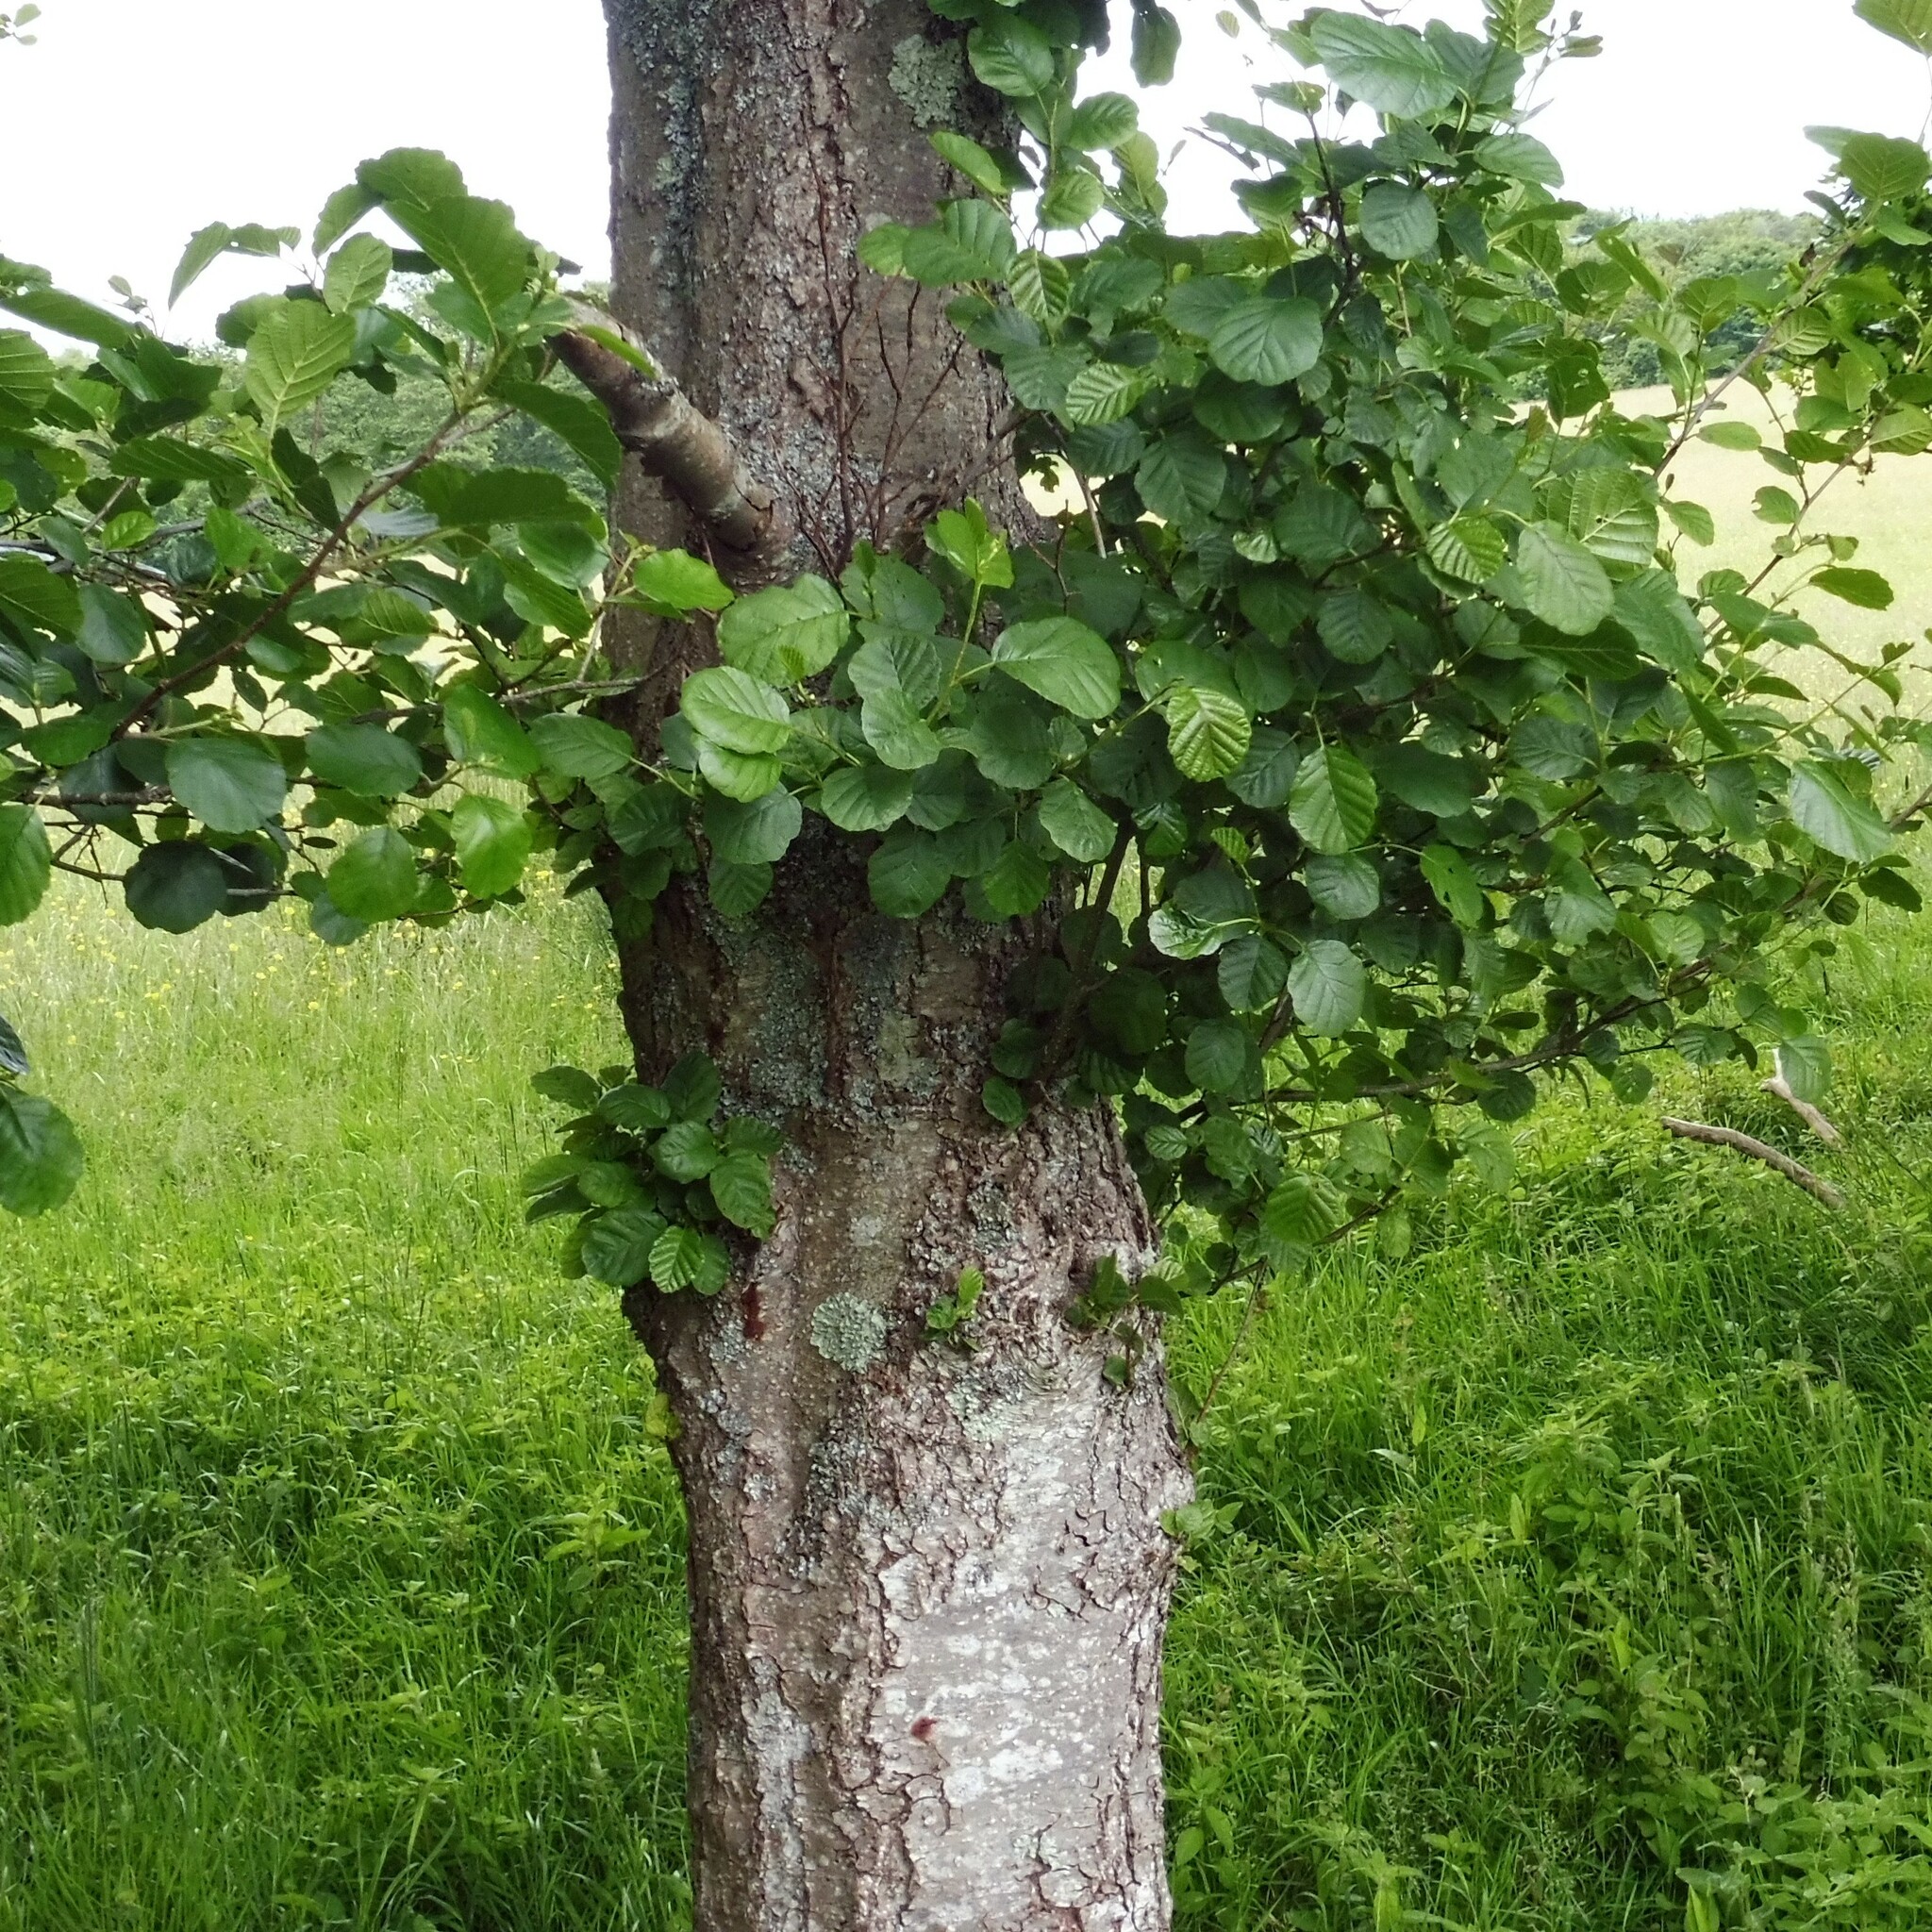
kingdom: Plantae
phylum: Tracheophyta
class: Magnoliopsida
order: Fagales
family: Betulaceae
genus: Alnus
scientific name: Alnus glutinosa
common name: Black alder
